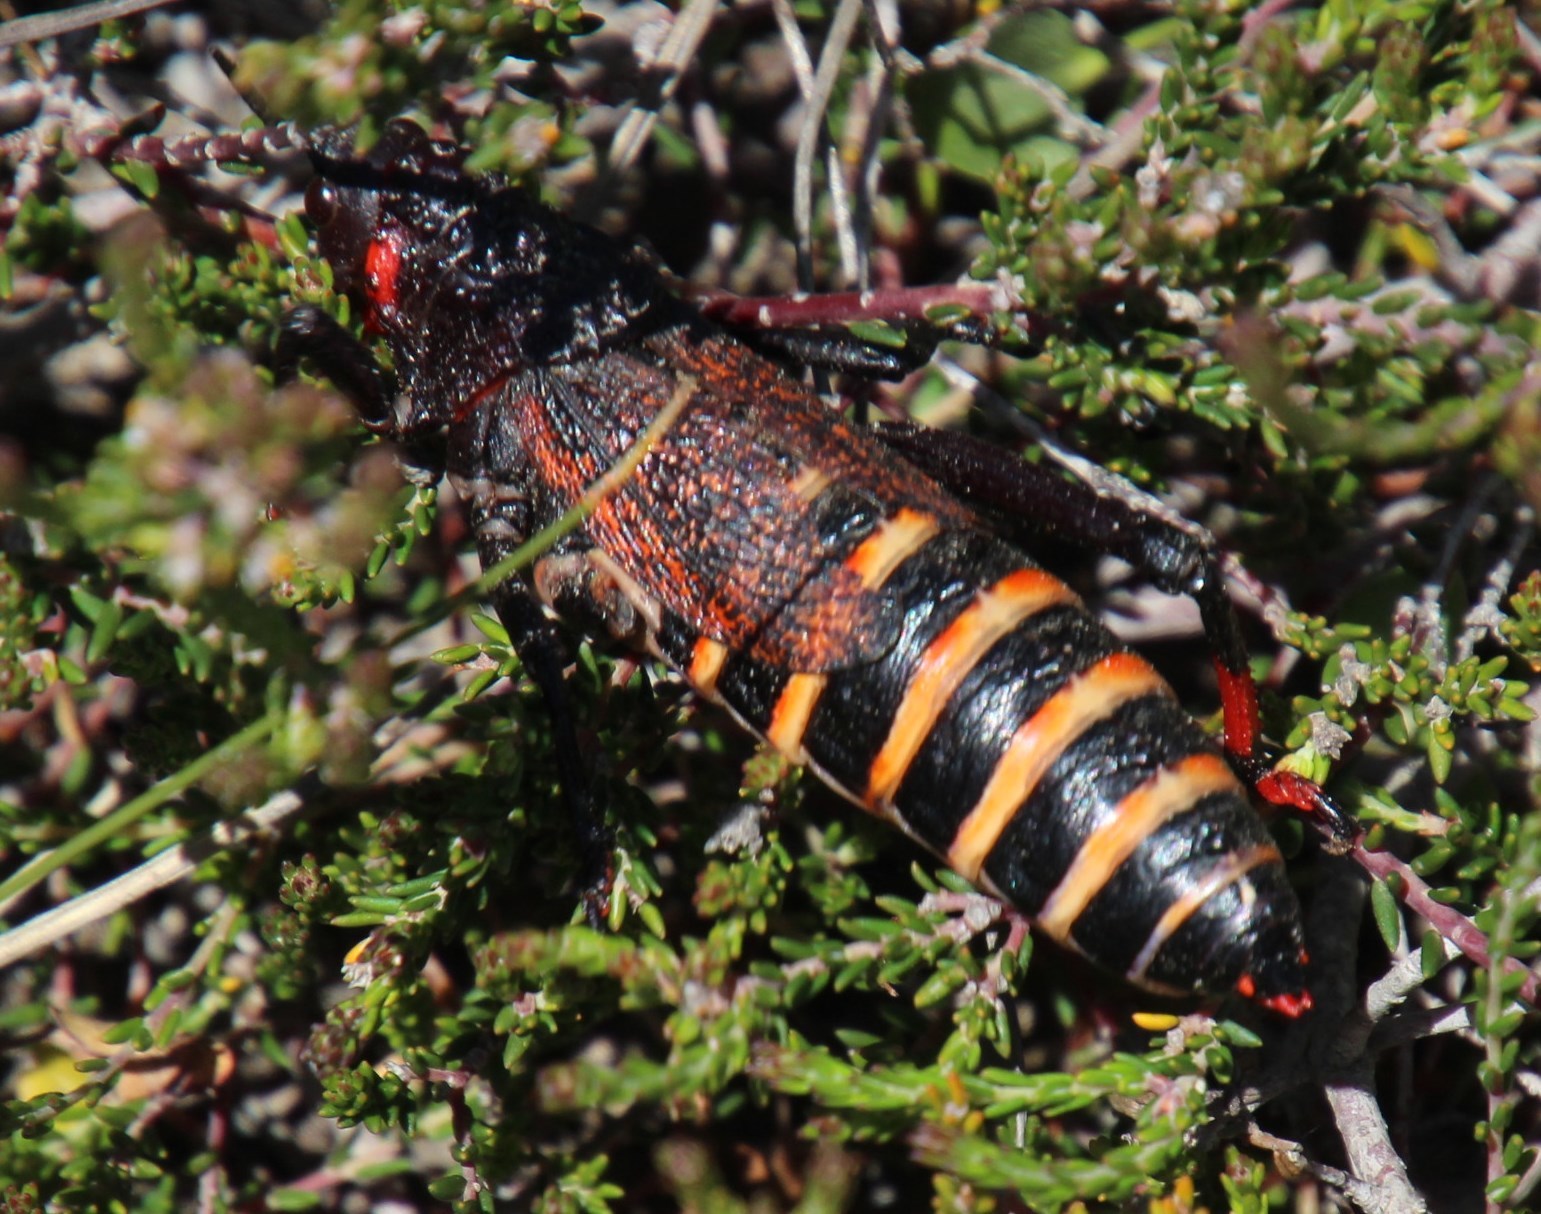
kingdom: Animalia
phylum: Arthropoda
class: Insecta
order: Orthoptera
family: Pyrgomorphidae
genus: Dictyophorus
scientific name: Dictyophorus spumans
